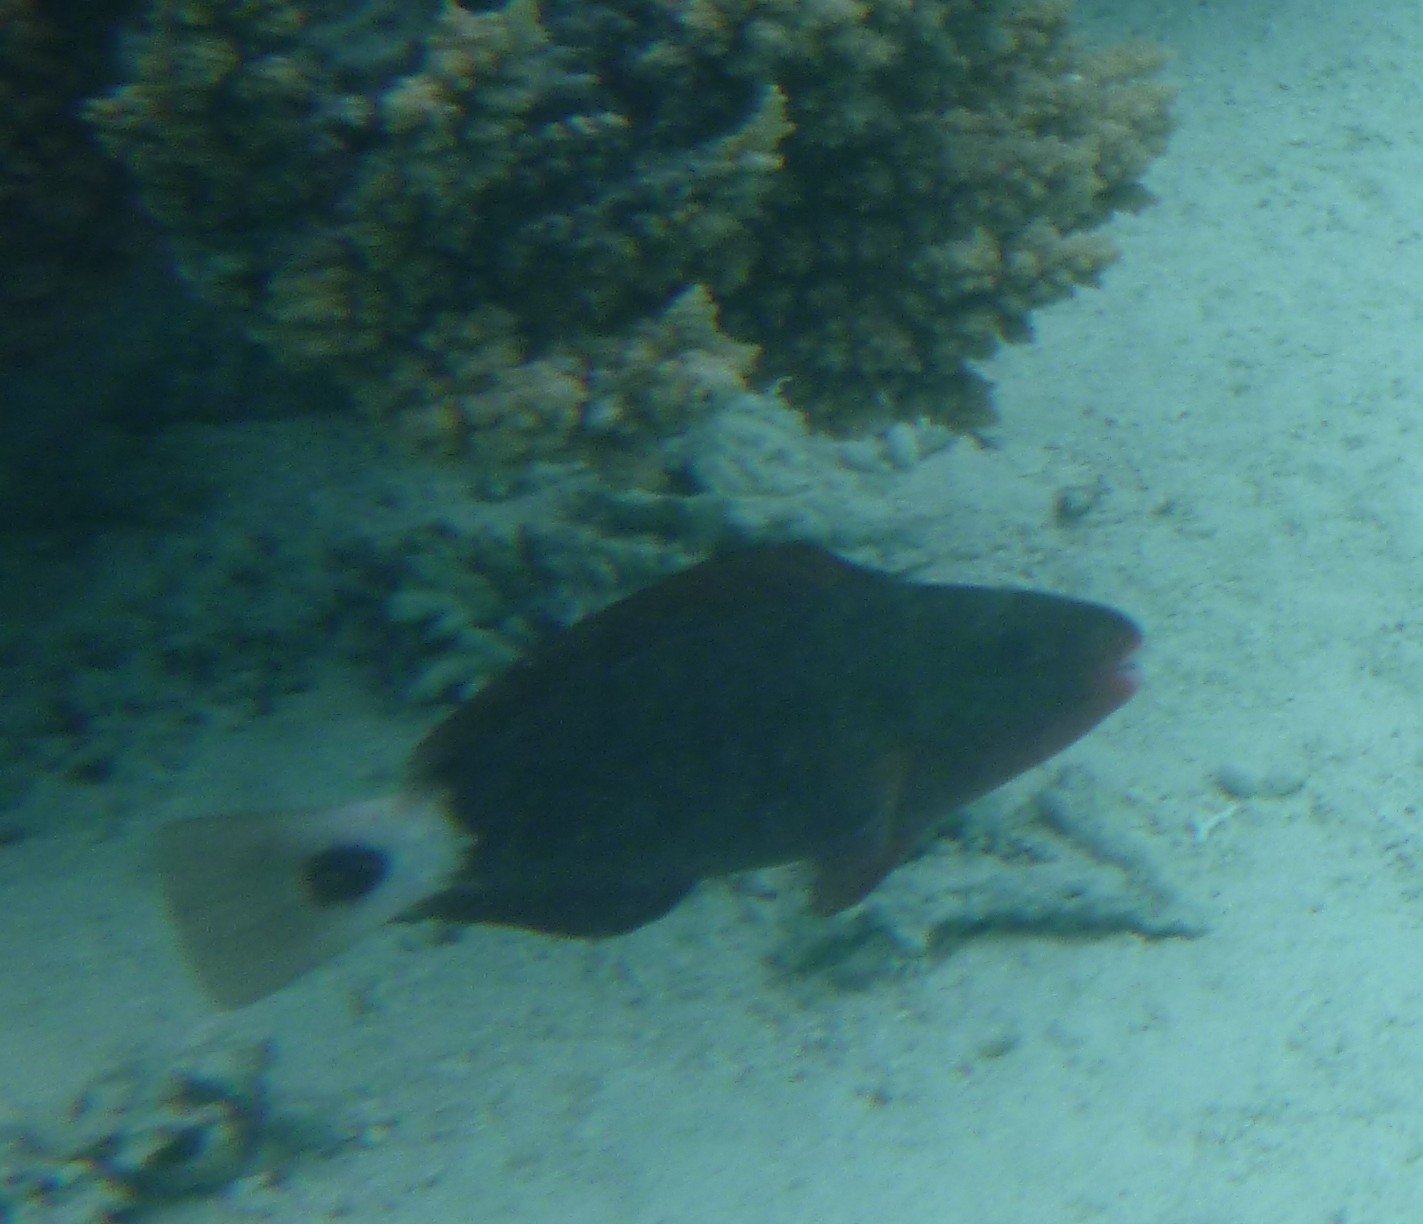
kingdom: Animalia
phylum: Chordata
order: Perciformes
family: Scaridae
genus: Chlorurus
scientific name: Chlorurus spilurus
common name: Bullethead parrotfish
